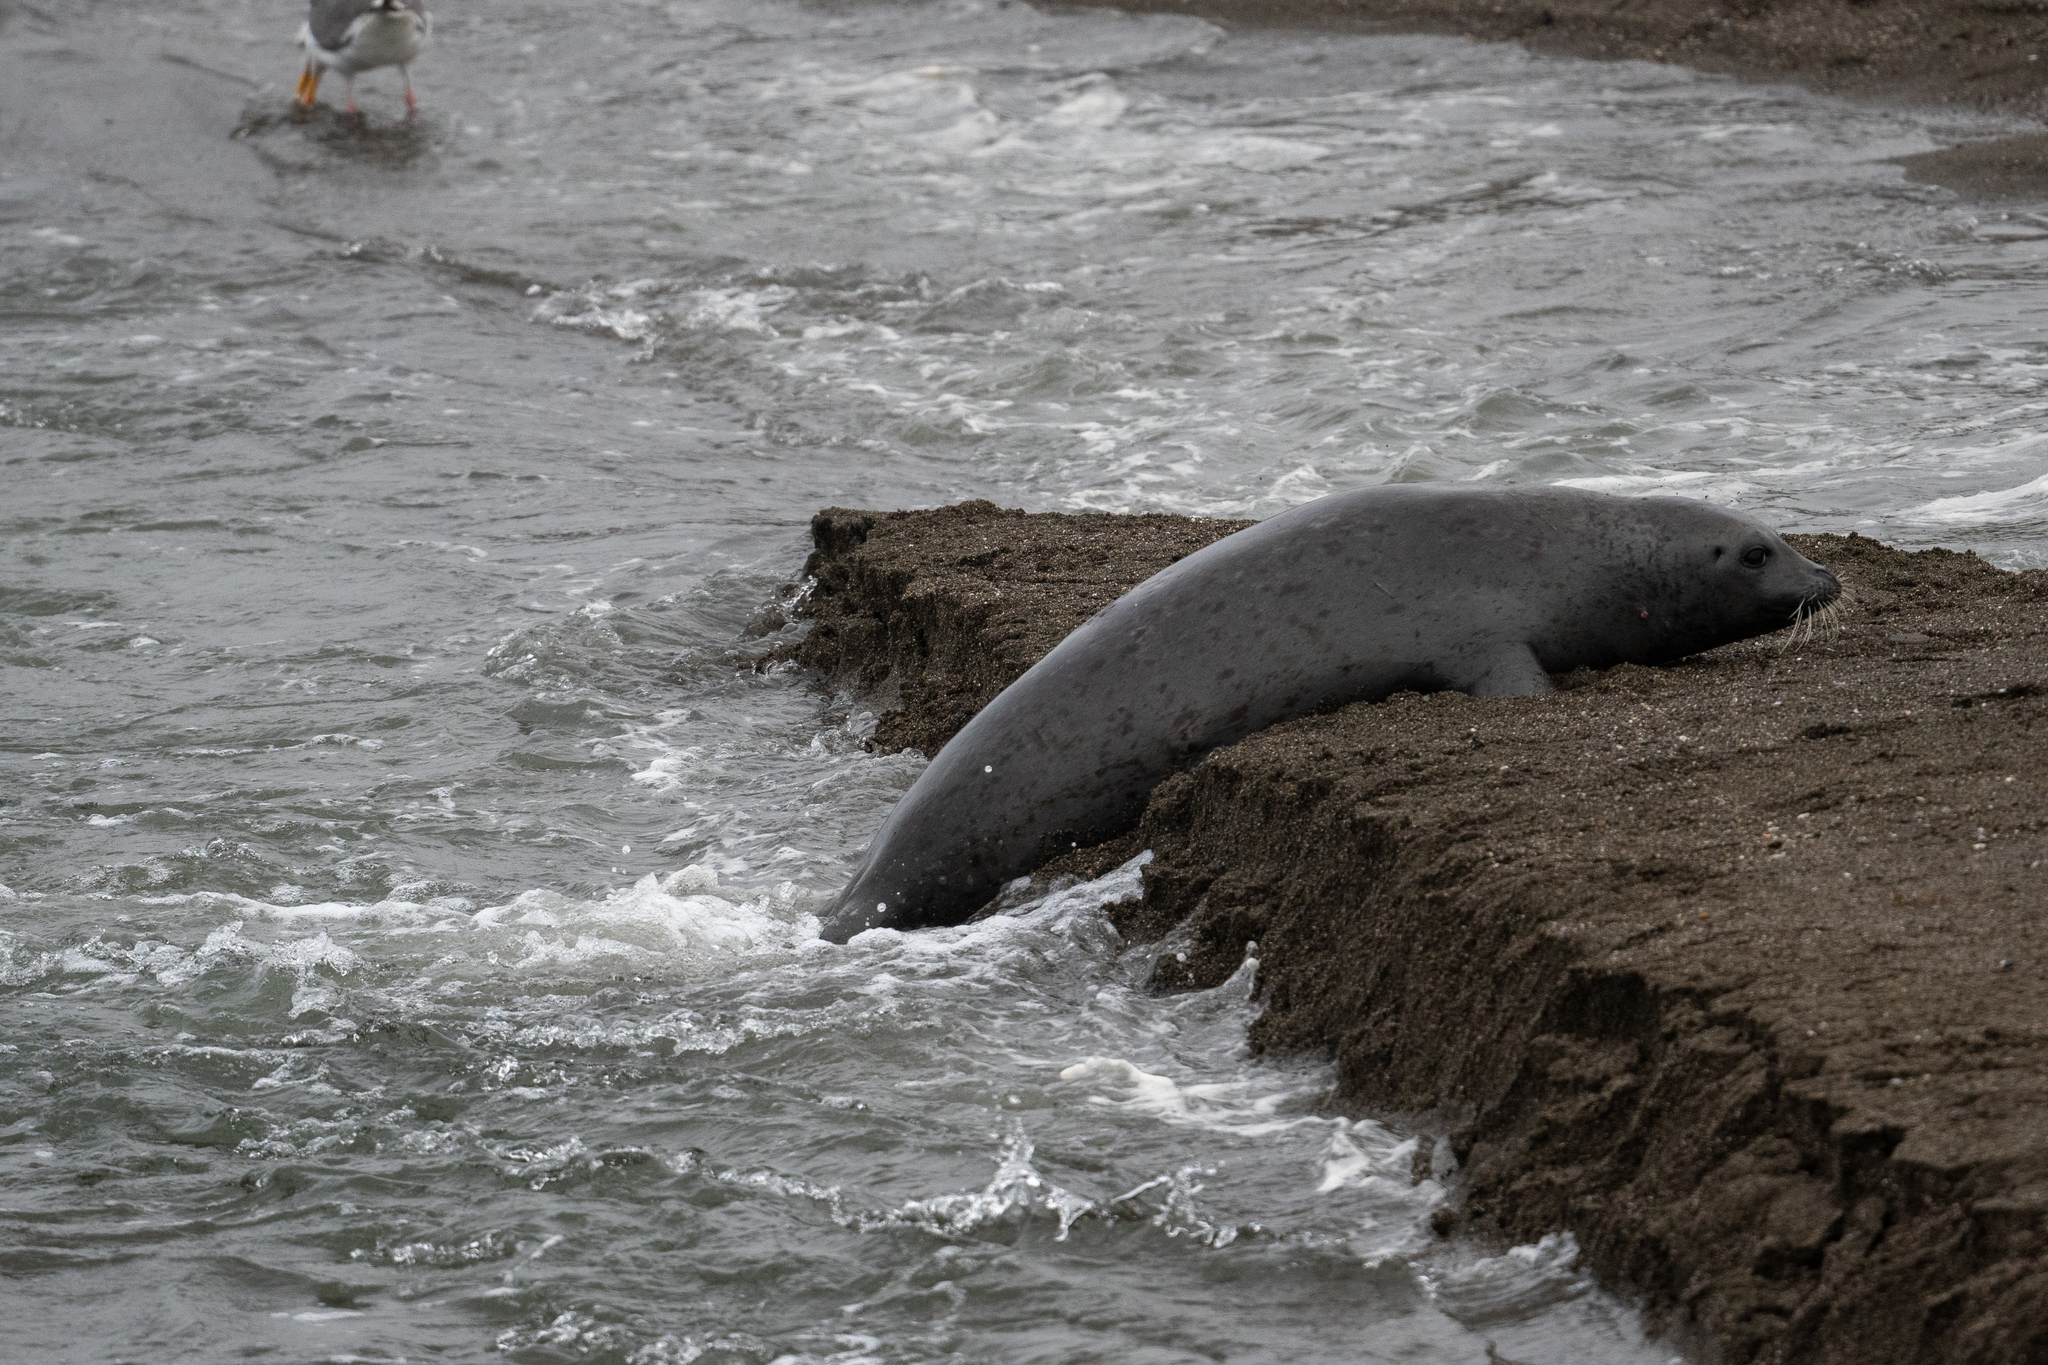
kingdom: Animalia
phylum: Chordata
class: Mammalia
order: Carnivora
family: Phocidae
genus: Phoca
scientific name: Phoca vitulina
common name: Harbor seal
